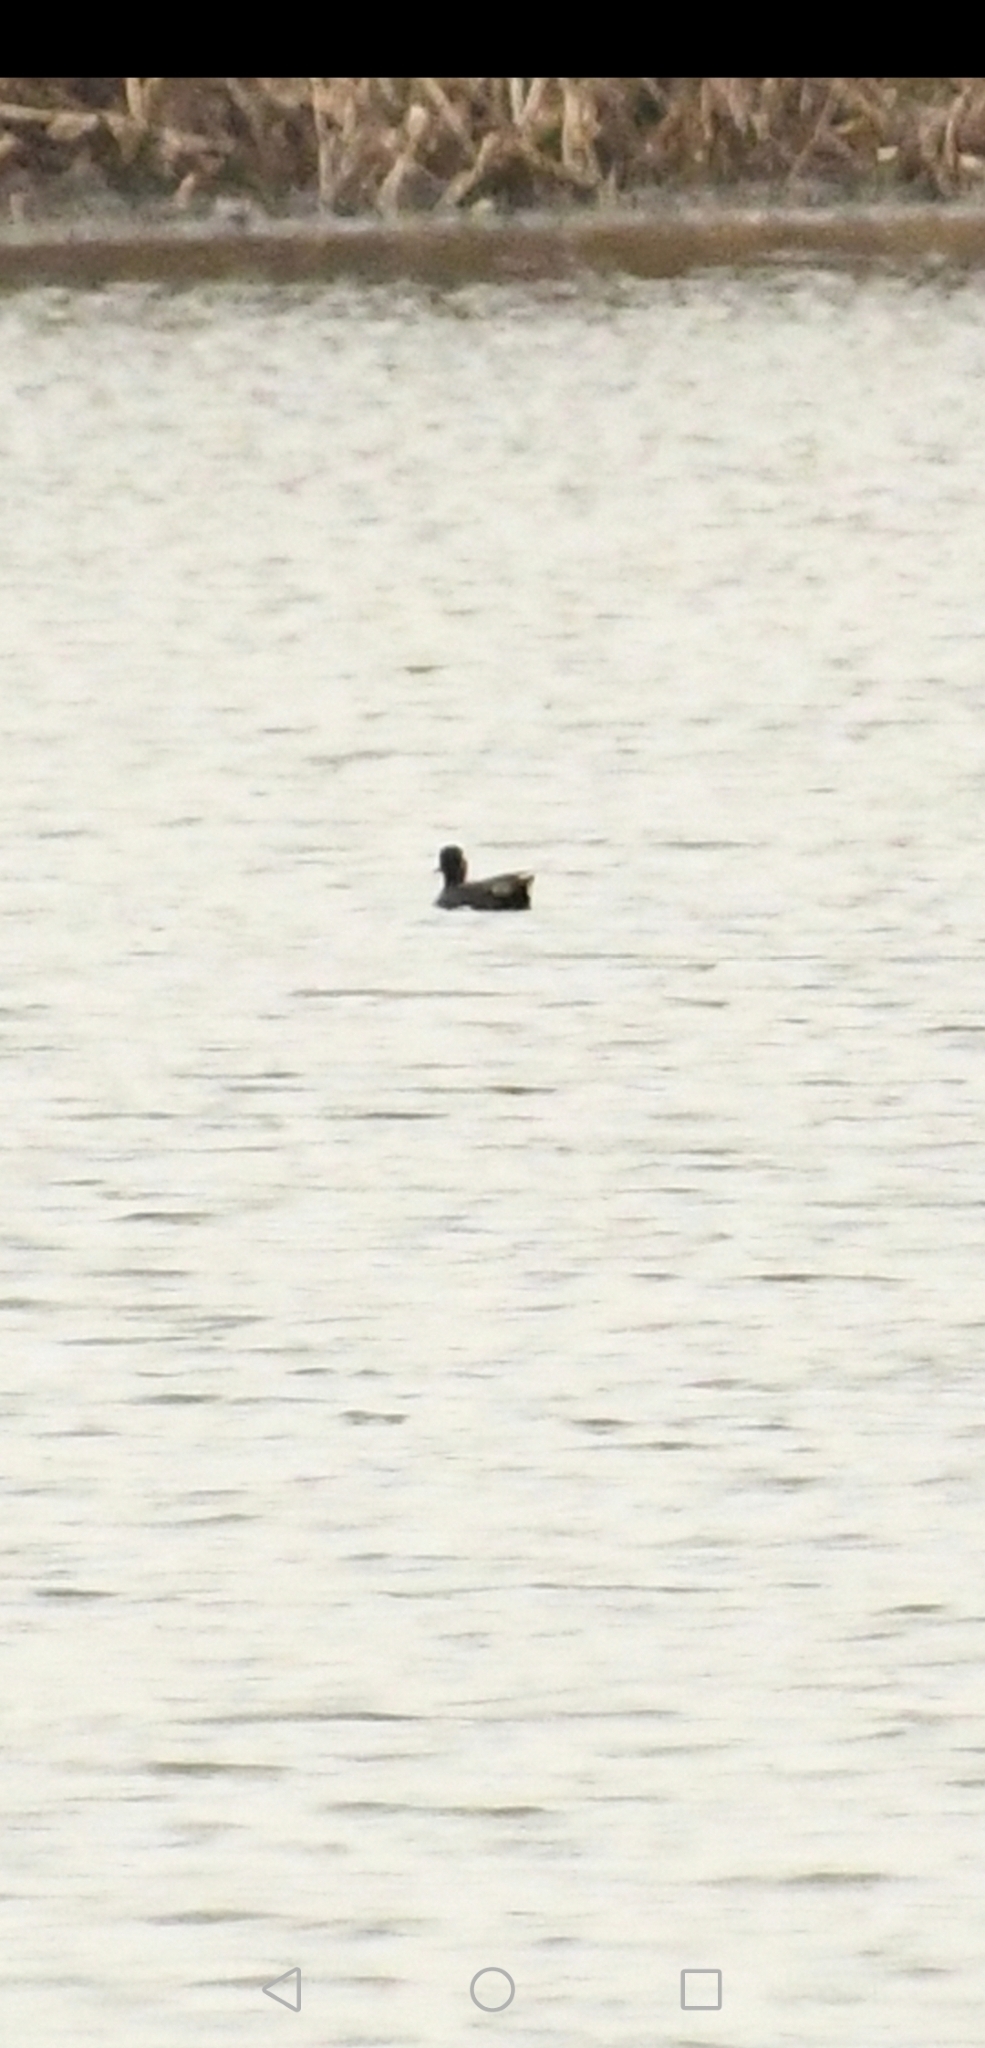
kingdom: Animalia
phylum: Chordata
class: Aves
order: Anseriformes
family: Anatidae
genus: Anas
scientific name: Anas crecca
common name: Eurasian teal
